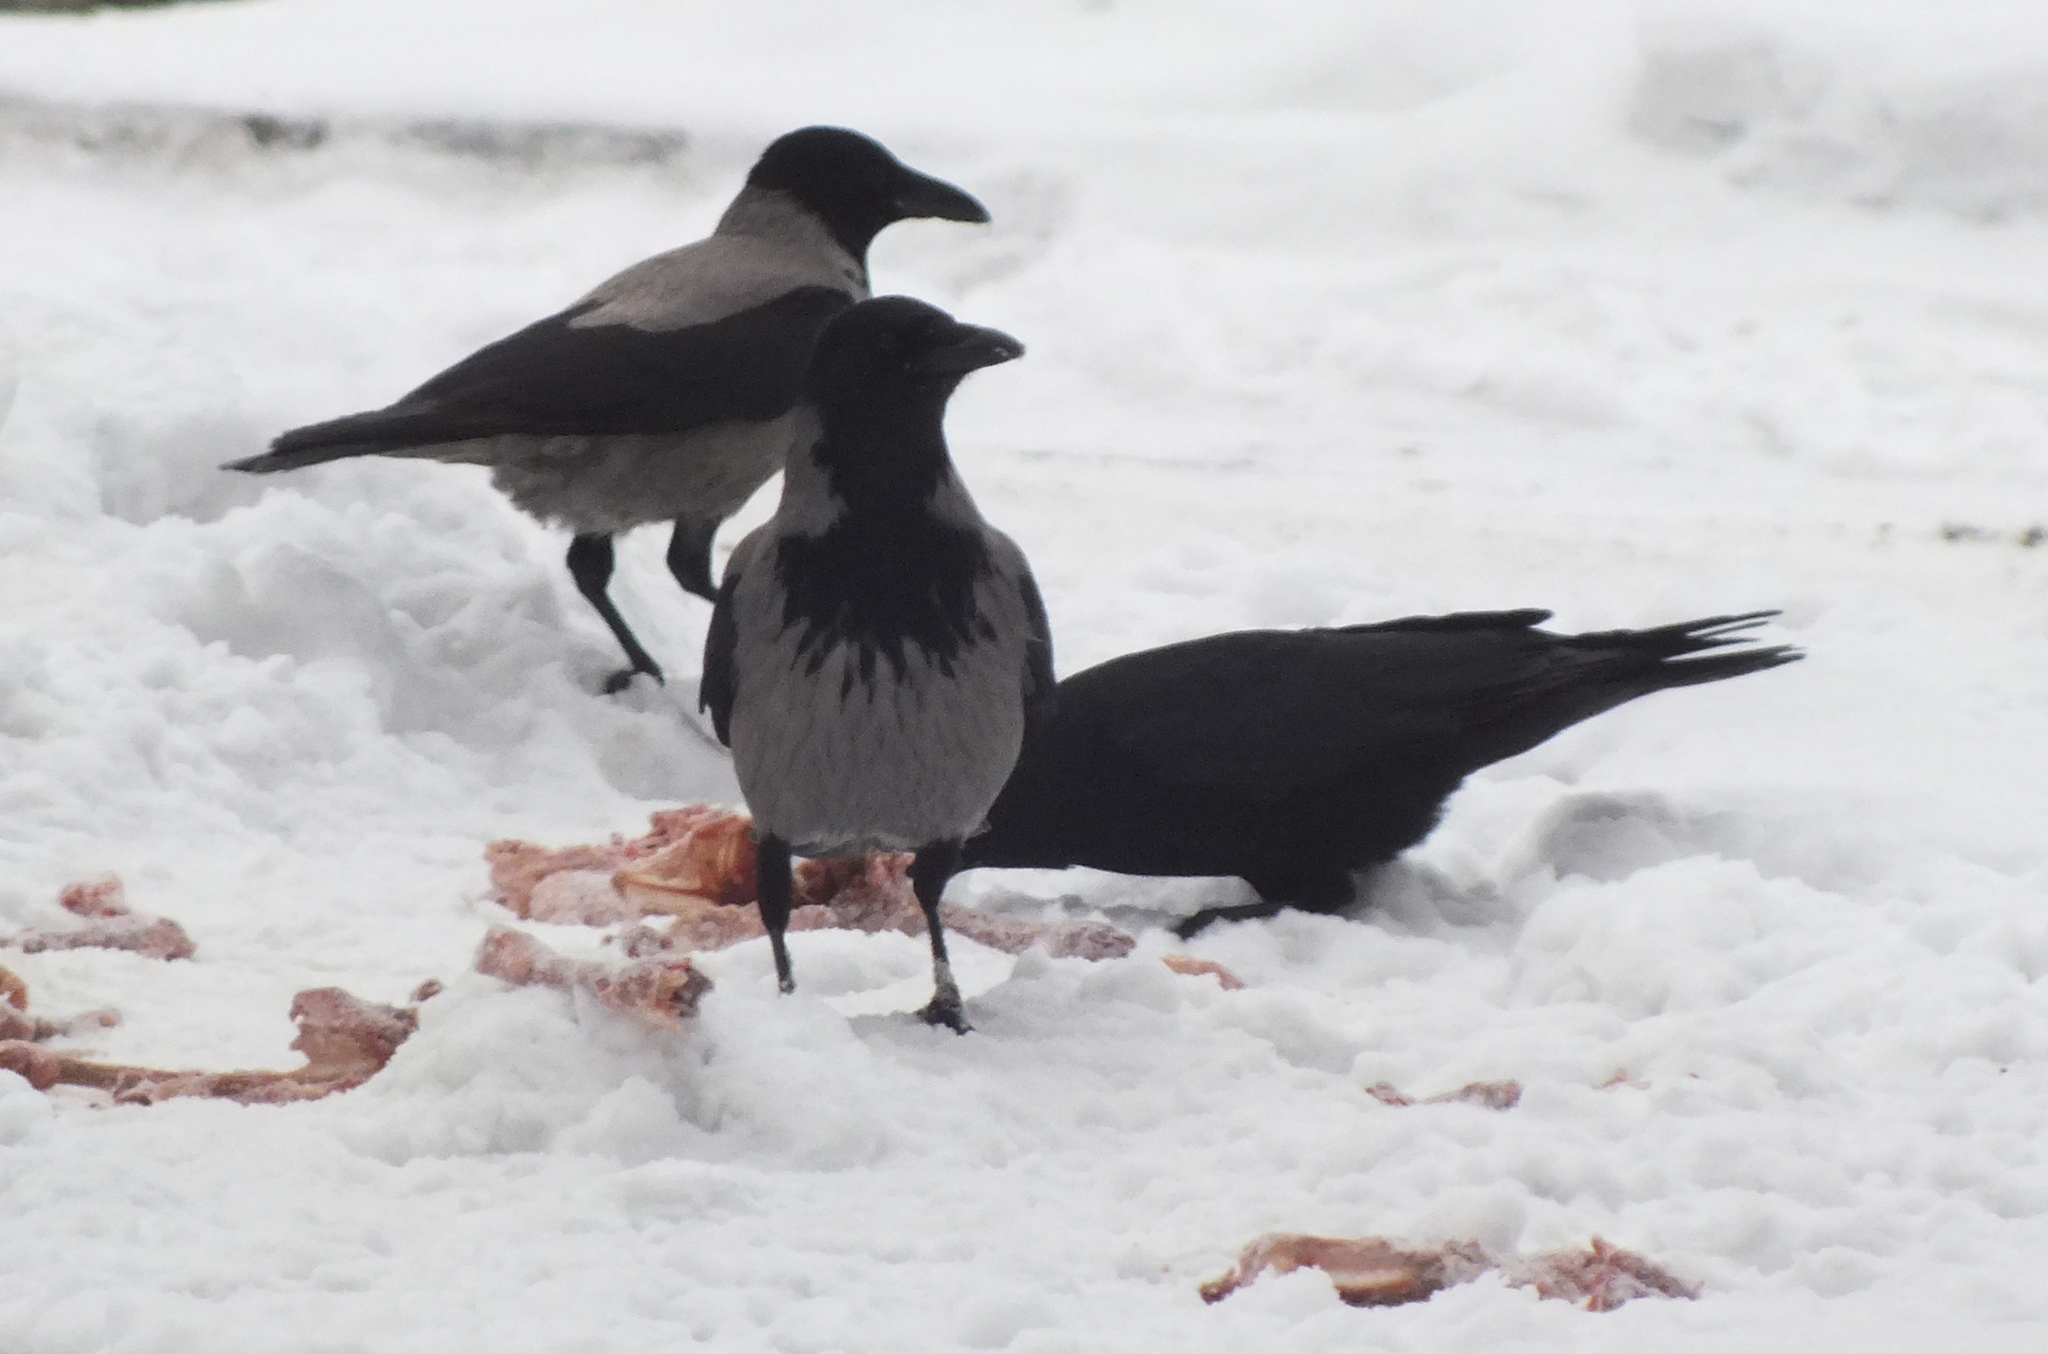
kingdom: Animalia
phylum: Chordata
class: Aves
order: Passeriformes
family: Corvidae
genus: Corvus
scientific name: Corvus cornix
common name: Hooded crow
